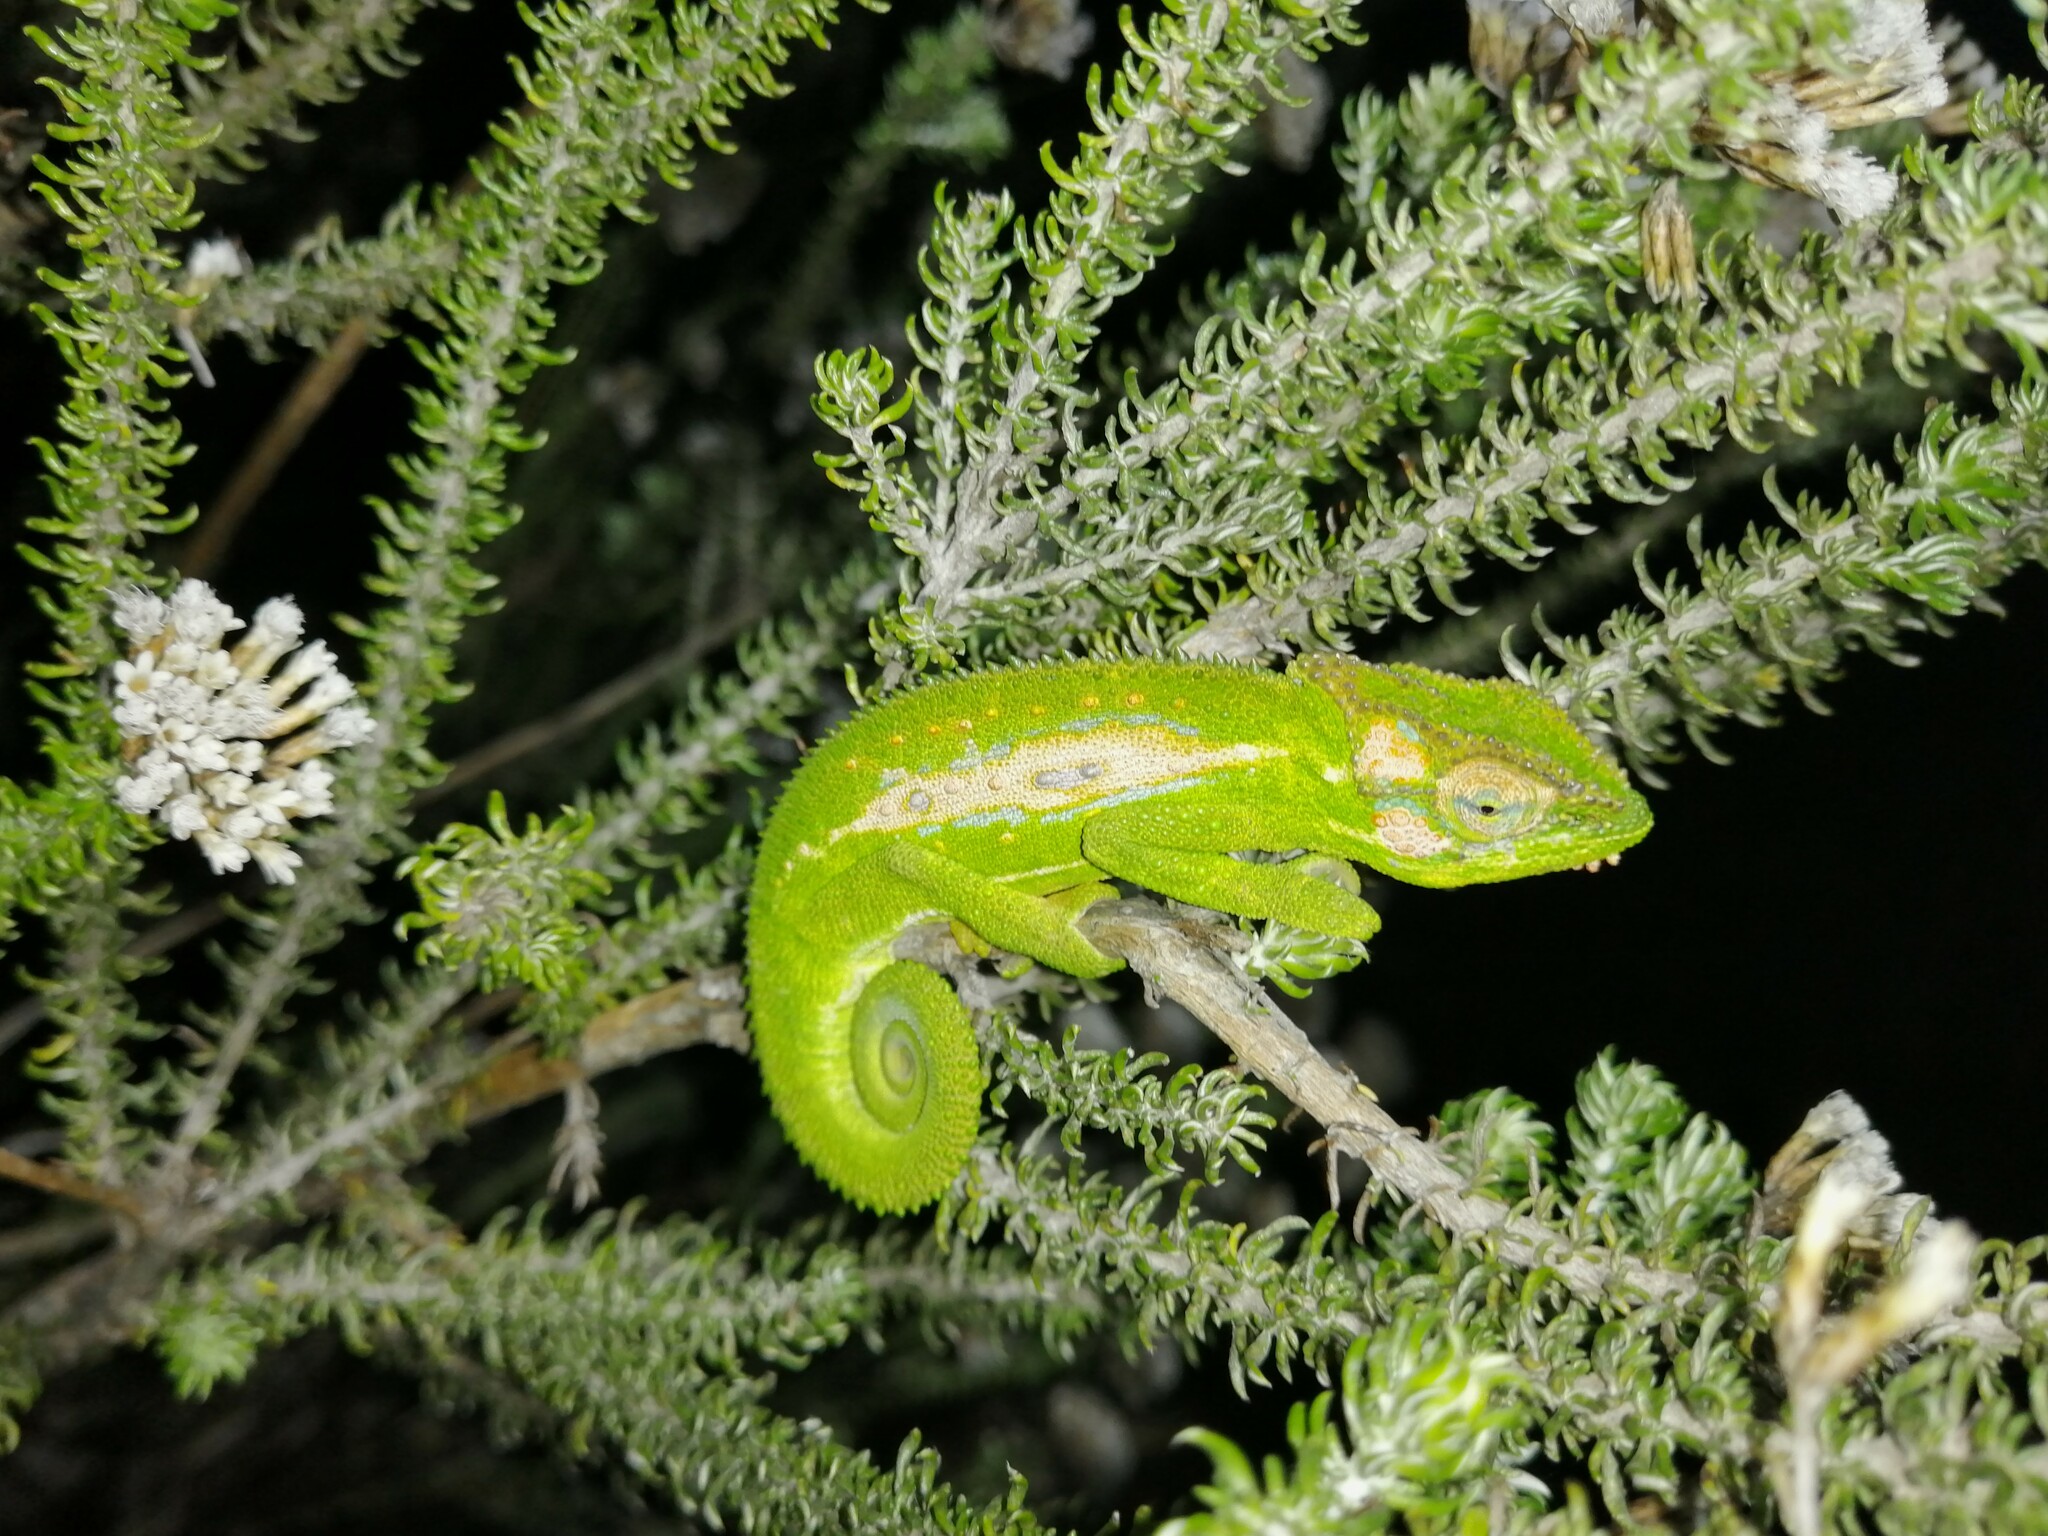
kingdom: Animalia
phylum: Chordata
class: Squamata
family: Chamaeleonidae
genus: Bradypodion
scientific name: Bradypodion pumilum
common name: Cape dwarf chameleon
